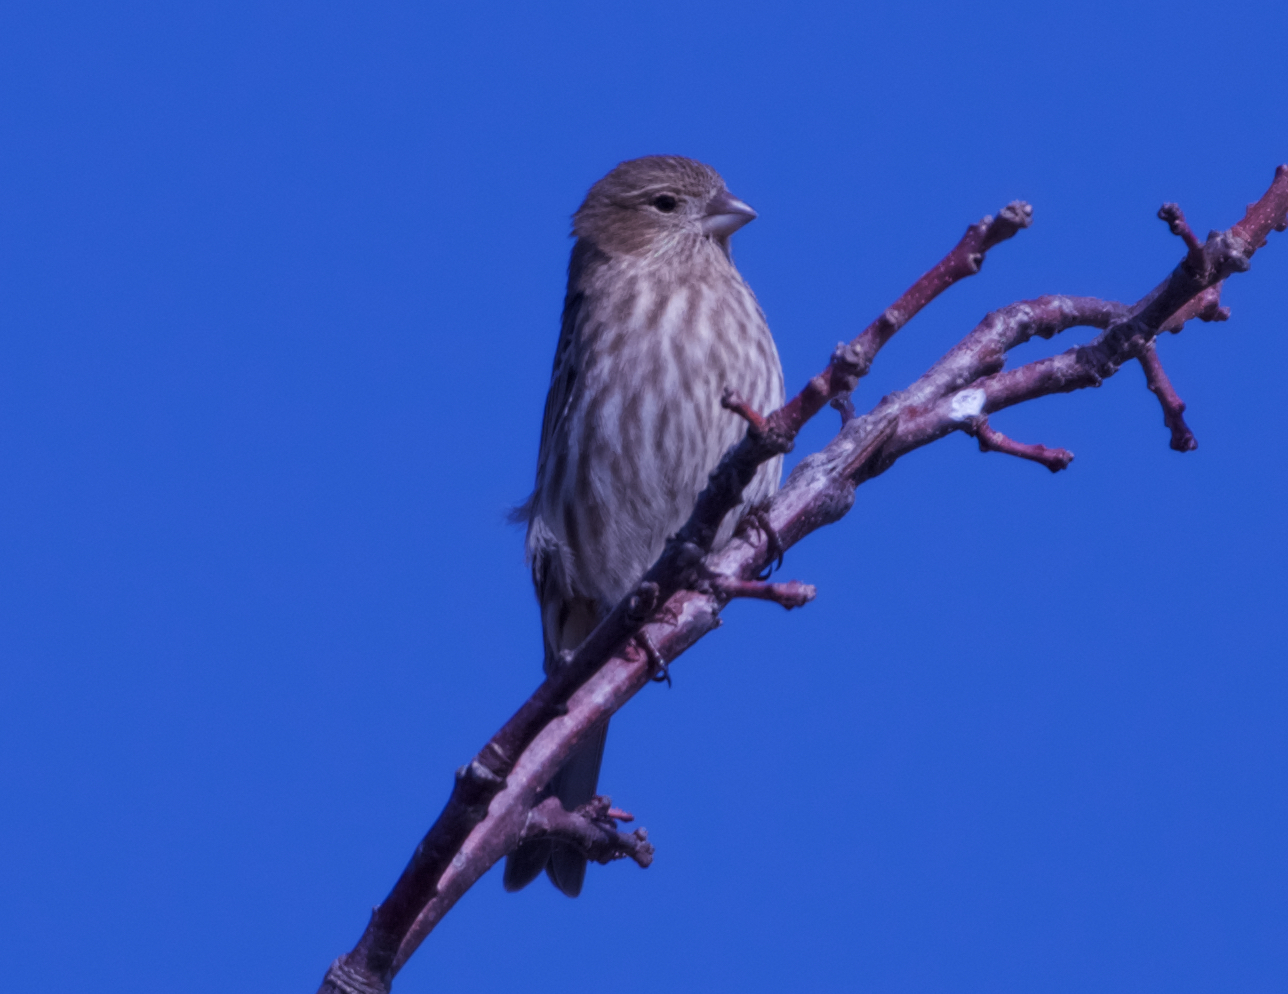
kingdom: Animalia
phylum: Chordata
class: Aves
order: Passeriformes
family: Fringillidae
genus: Haemorhous
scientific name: Haemorhous mexicanus
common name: House finch
